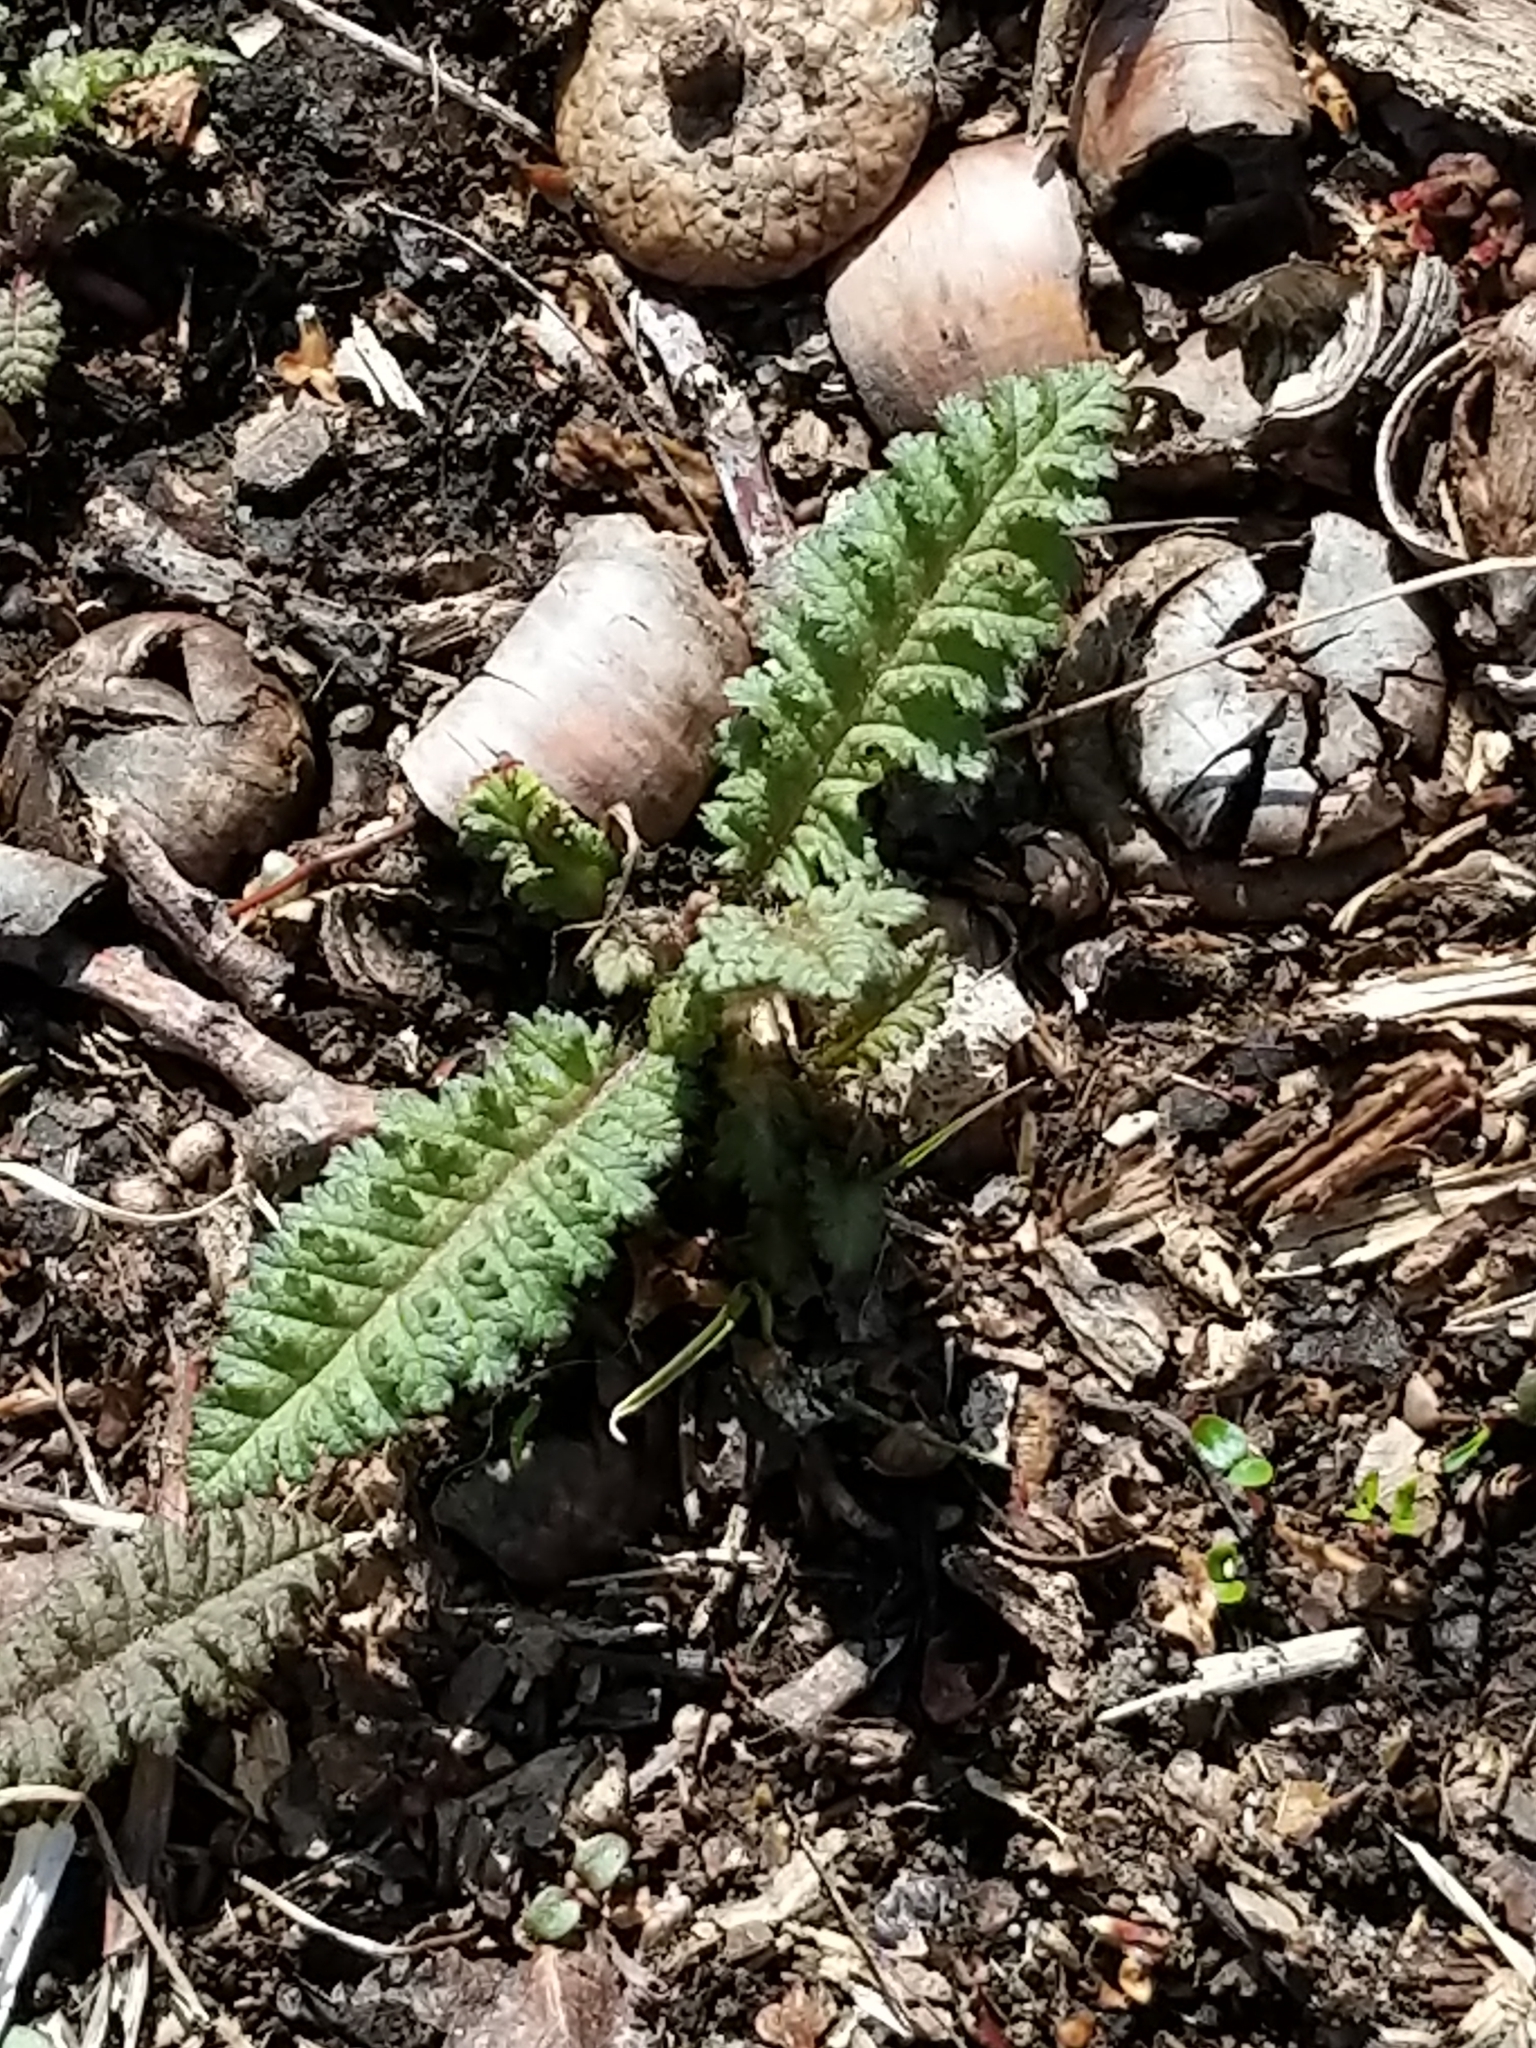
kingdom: Plantae
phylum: Tracheophyta
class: Magnoliopsida
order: Lamiales
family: Orobanchaceae
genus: Pedicularis
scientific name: Pedicularis canadensis
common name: Early lousewort
